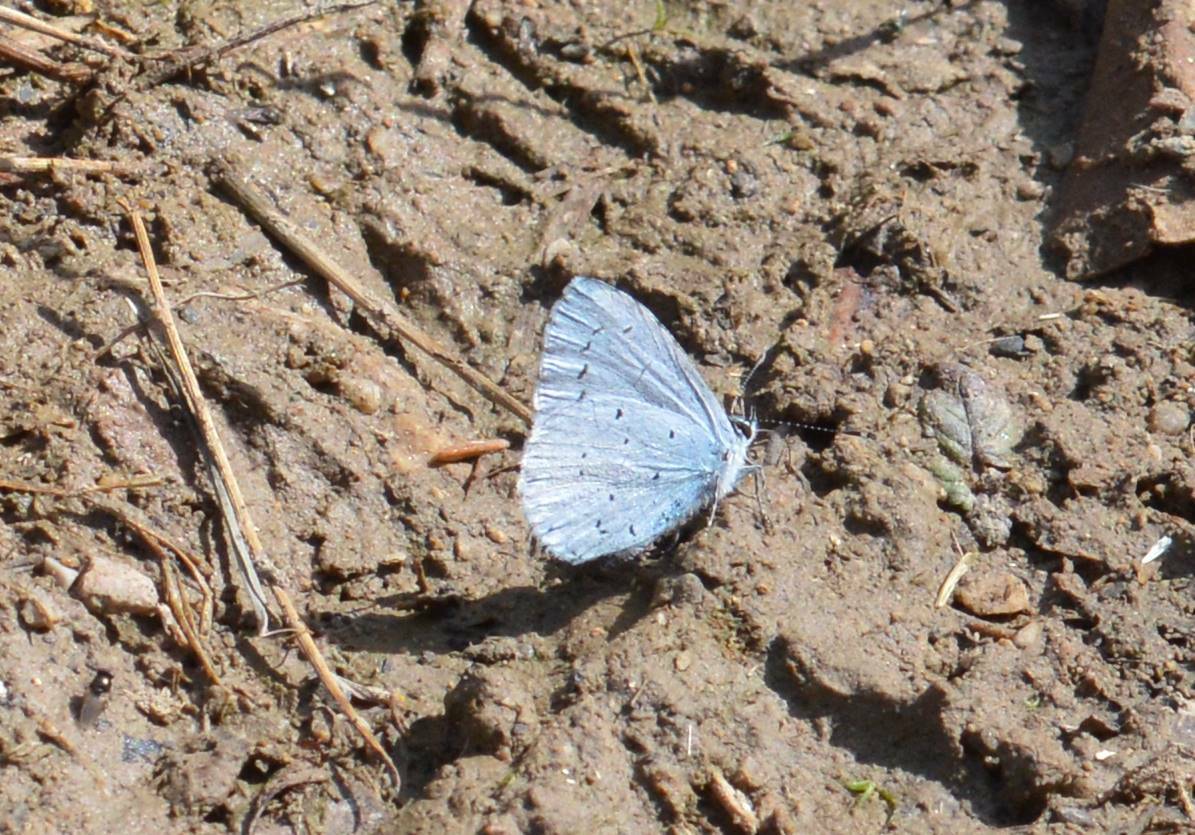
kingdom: Animalia
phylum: Arthropoda
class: Insecta
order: Lepidoptera
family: Lycaenidae
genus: Celastrina
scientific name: Celastrina argiolus
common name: Holly blue
